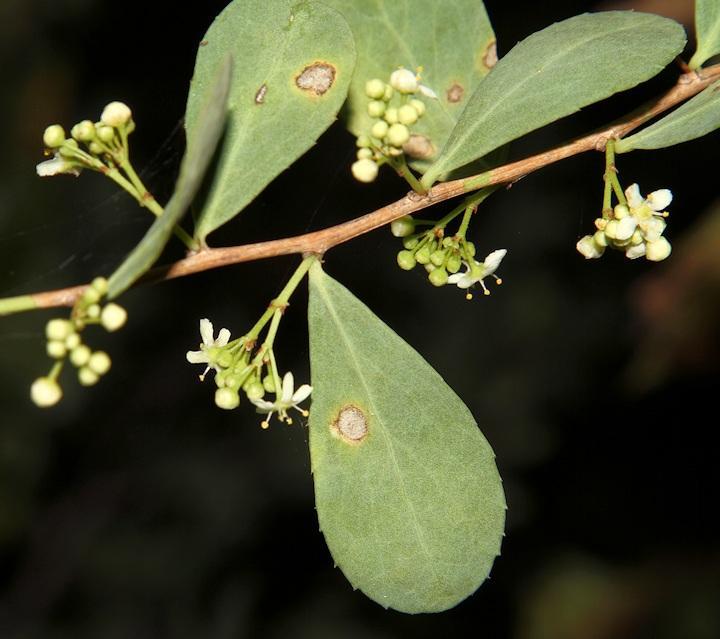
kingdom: Plantae
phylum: Tracheophyta
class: Magnoliopsida
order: Celastrales
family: Celastraceae
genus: Gymnosporia
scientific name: Gymnosporia glaucophylla
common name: Blue spike-thorn
